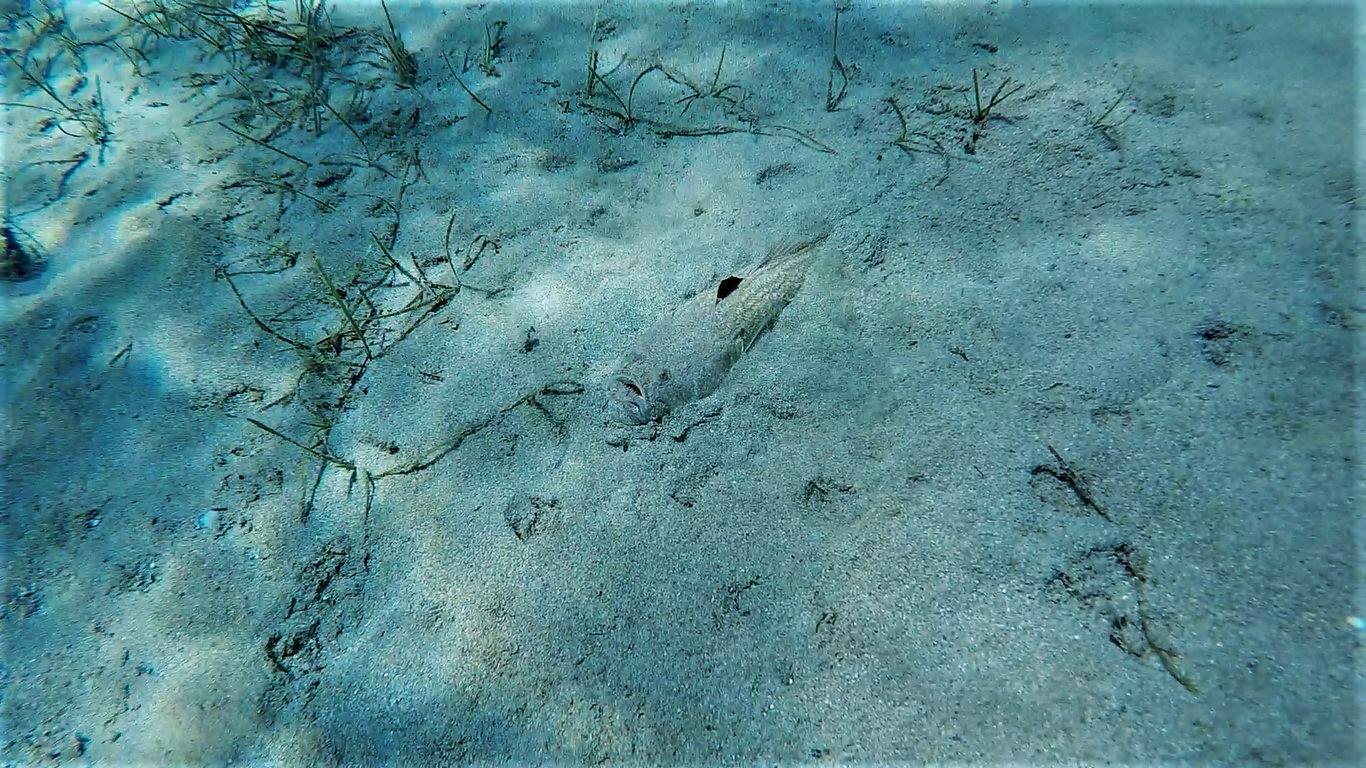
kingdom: Animalia
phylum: Chordata
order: Perciformes
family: Uranoscopidae
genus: Uranoscopus
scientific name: Uranoscopus scaber
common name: Stargazer
